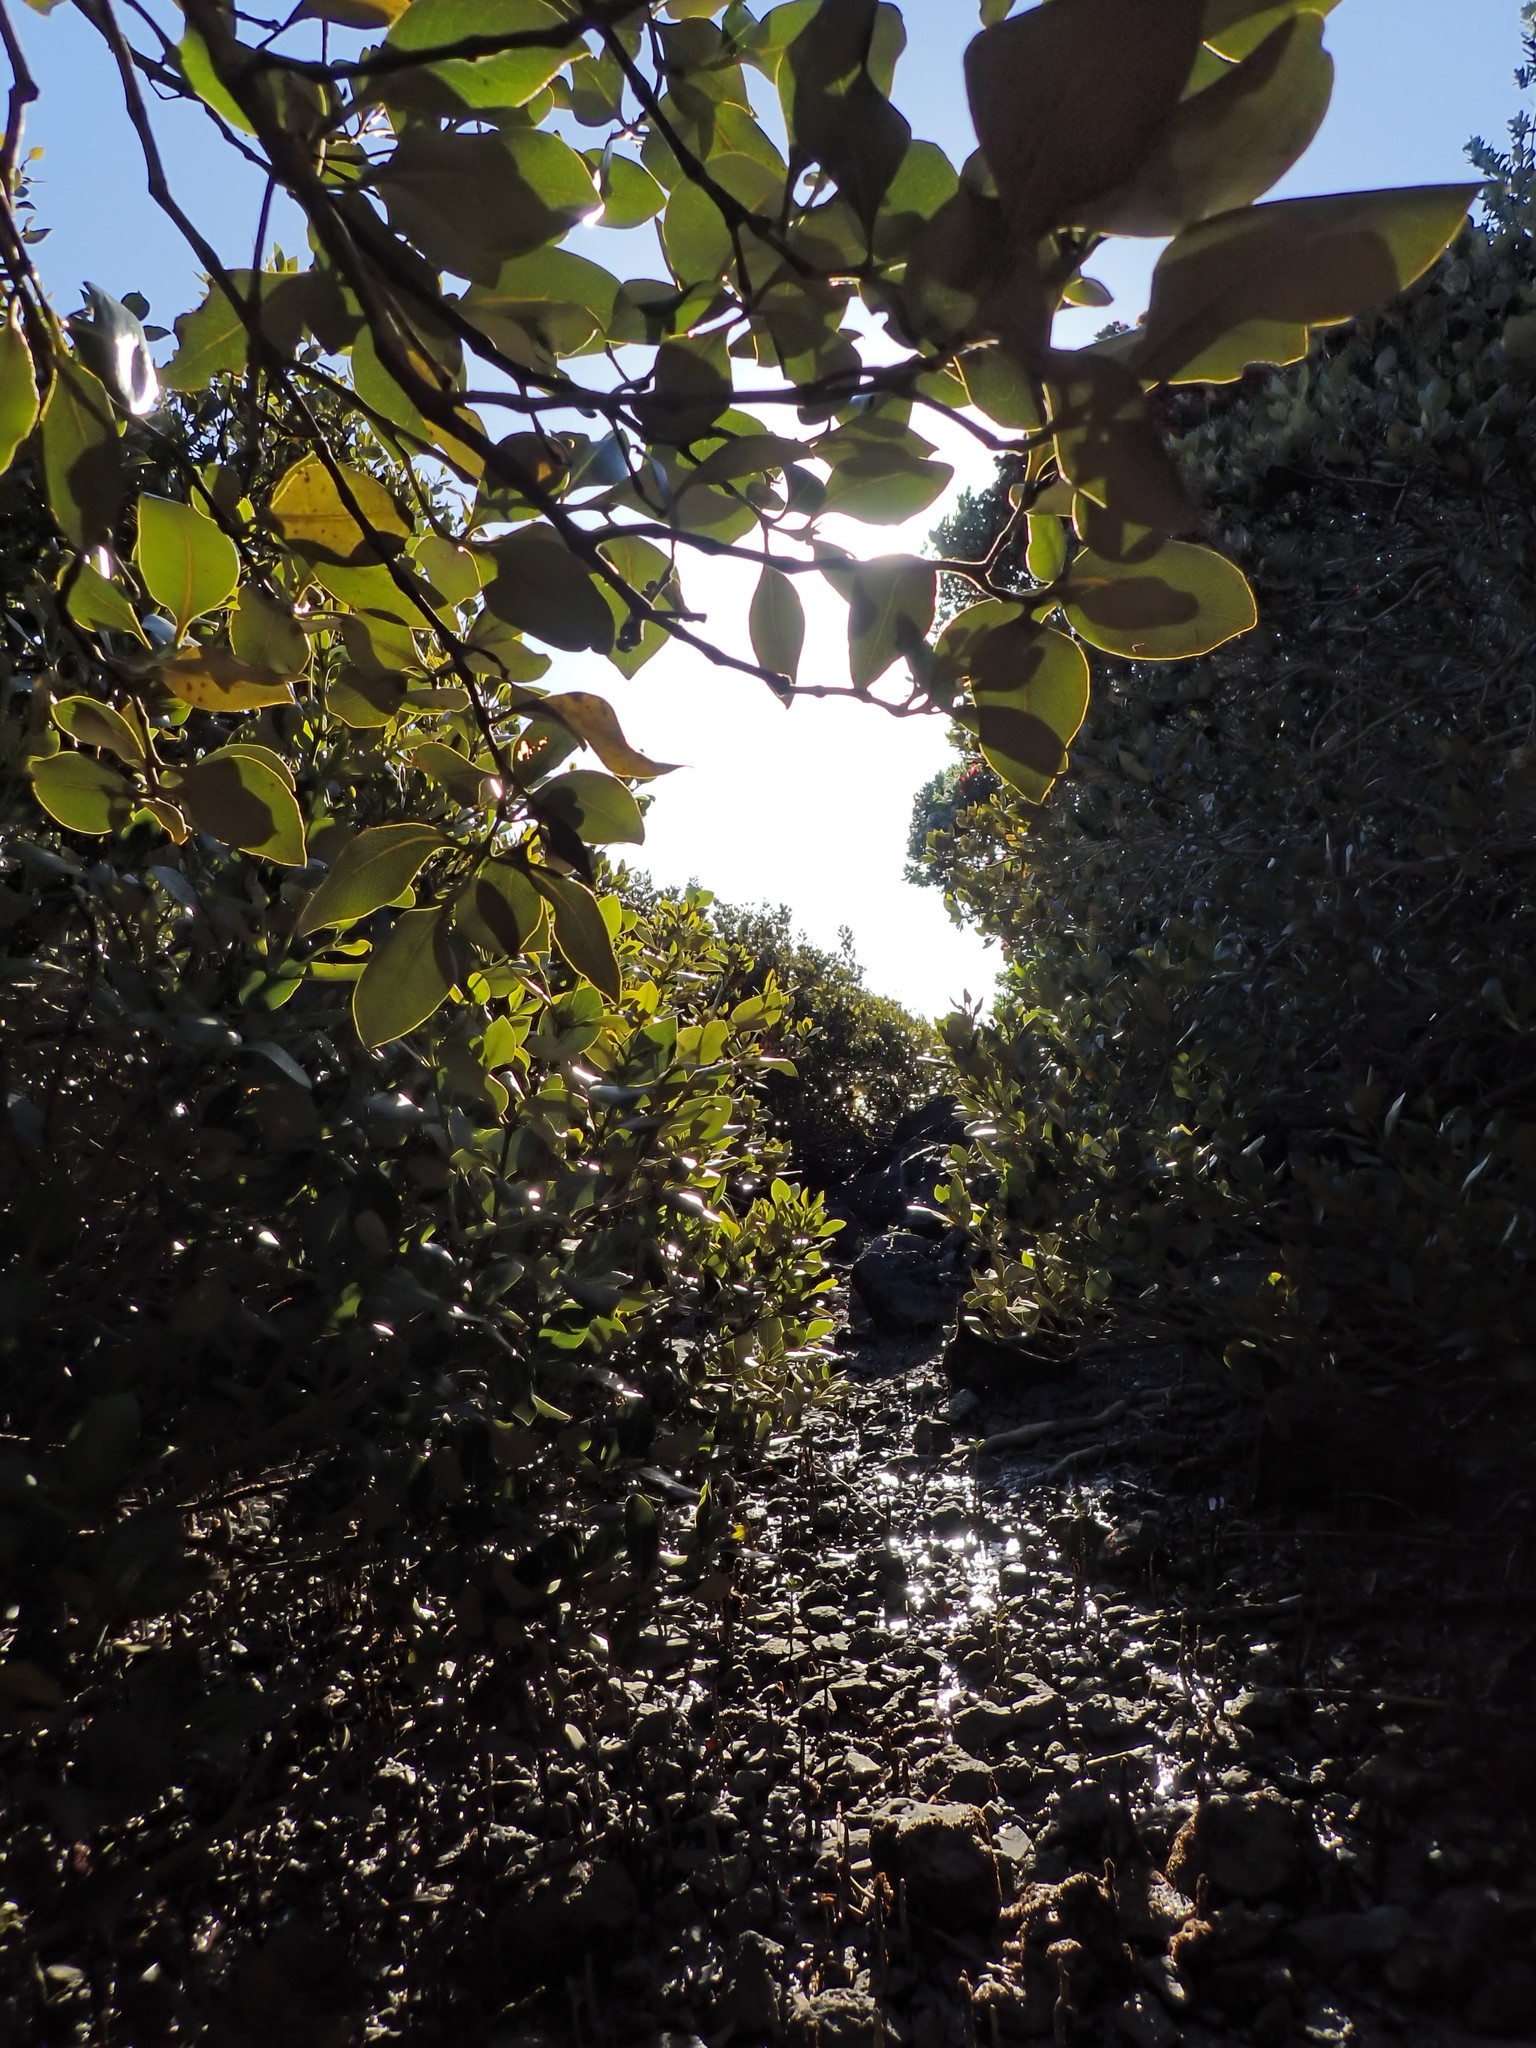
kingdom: Plantae
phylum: Tracheophyta
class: Magnoliopsida
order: Lamiales
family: Acanthaceae
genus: Avicennia
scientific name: Avicennia marina
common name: Gray mangrove
